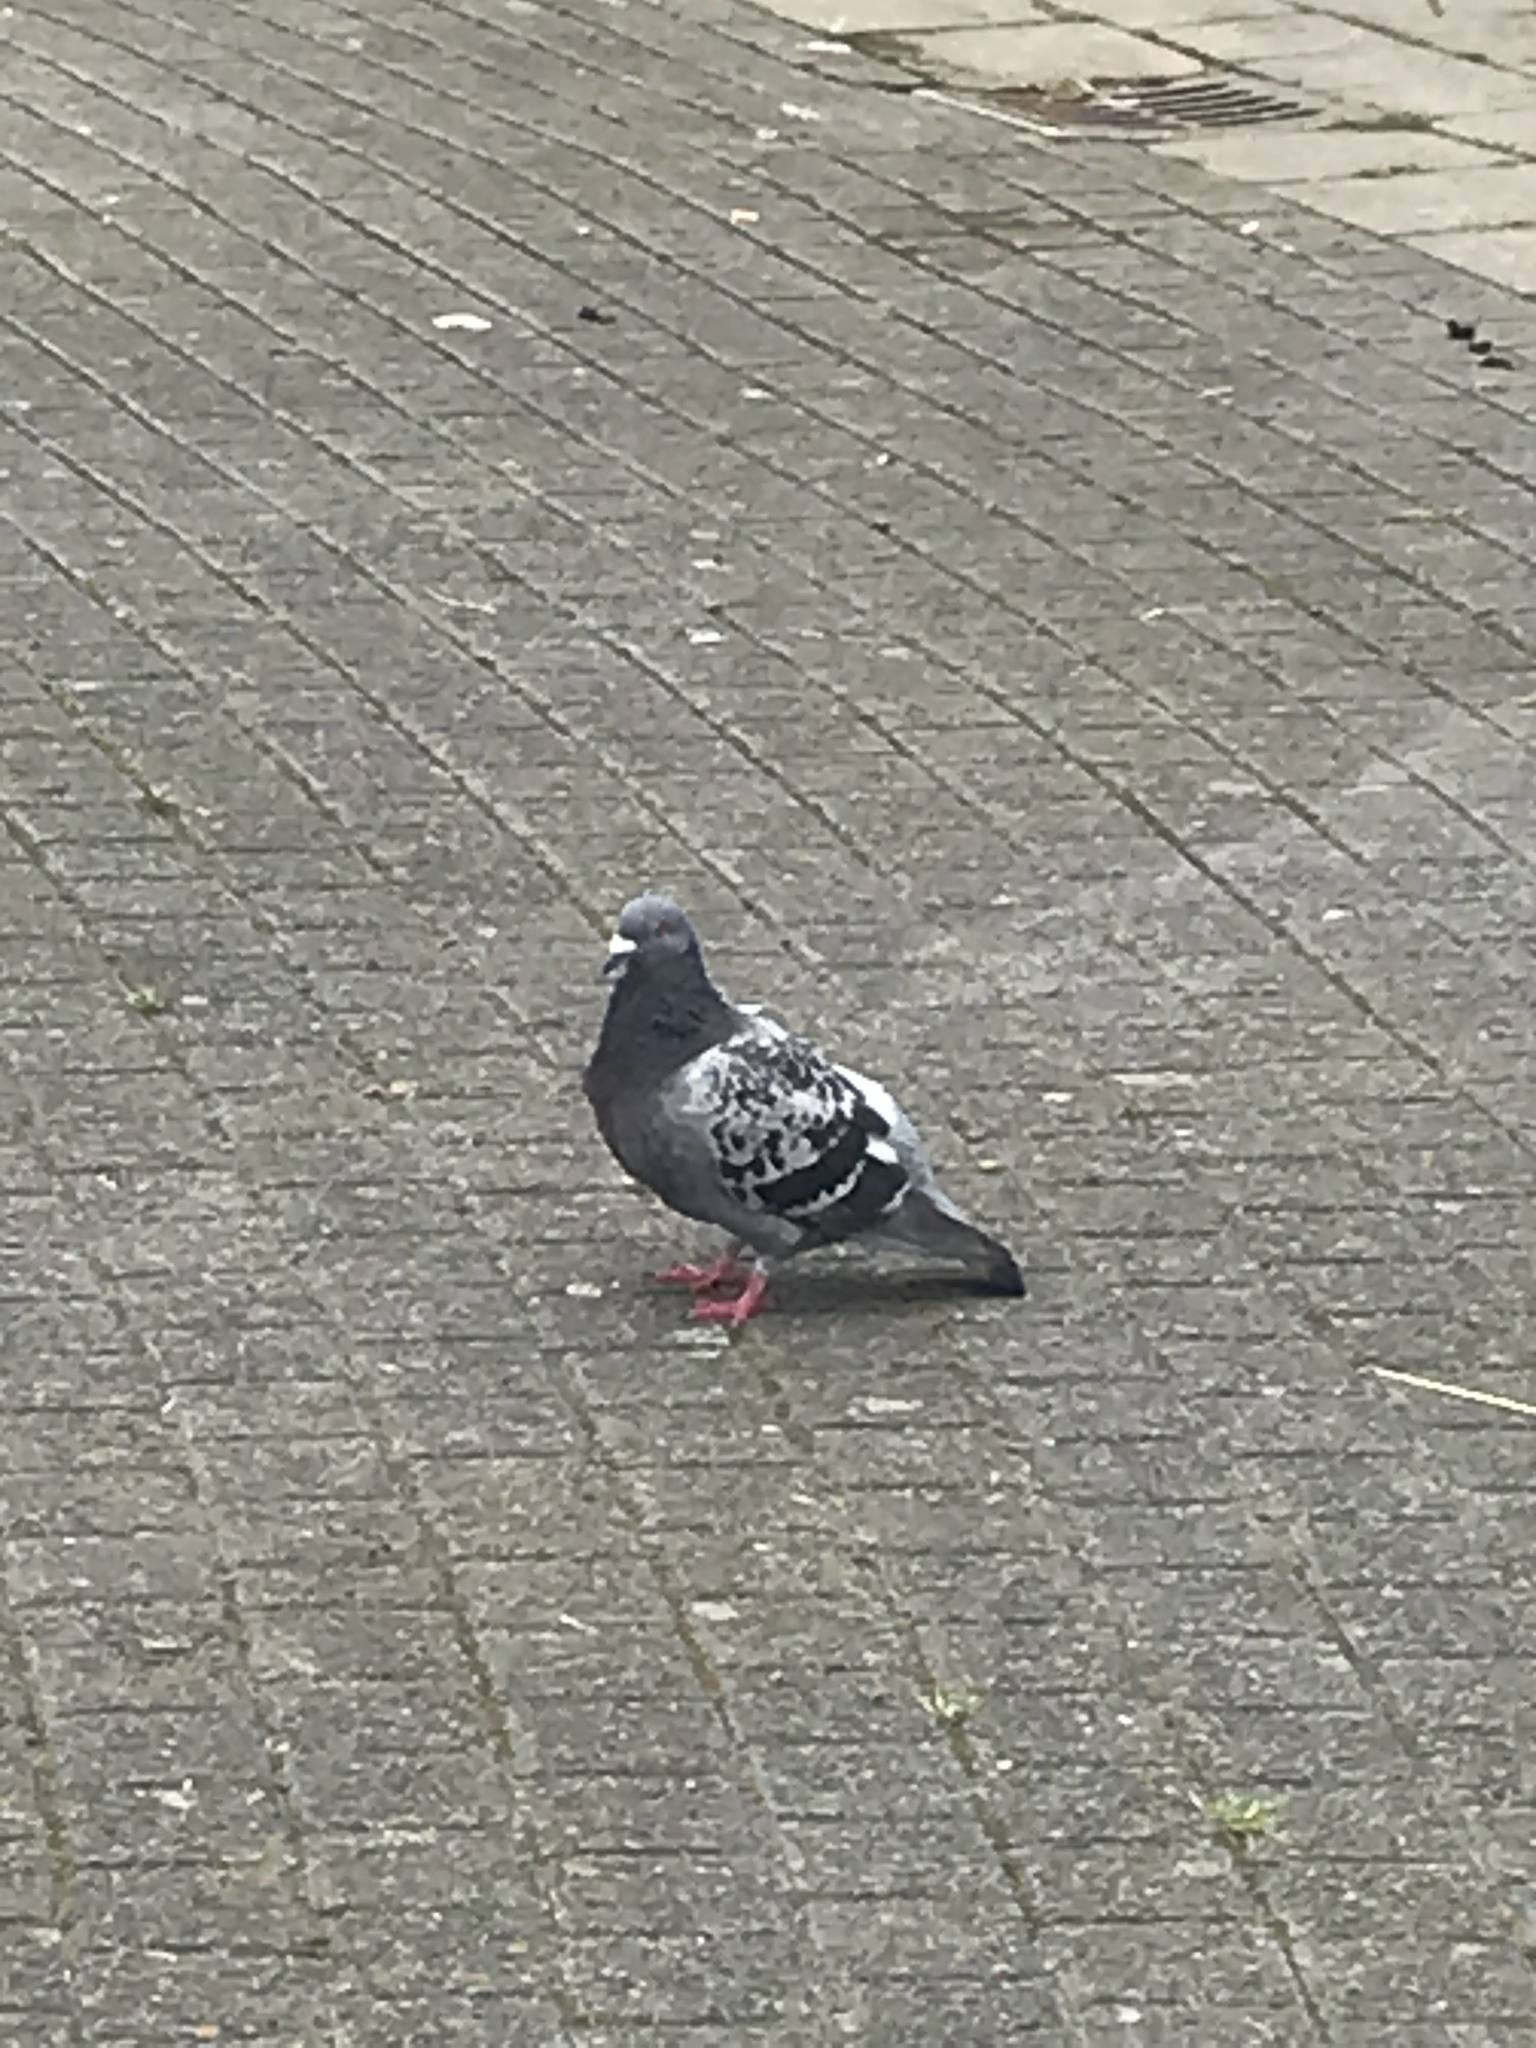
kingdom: Animalia
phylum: Chordata
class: Aves
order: Columbiformes
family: Columbidae
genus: Columba
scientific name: Columba livia
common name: Rock pigeon
